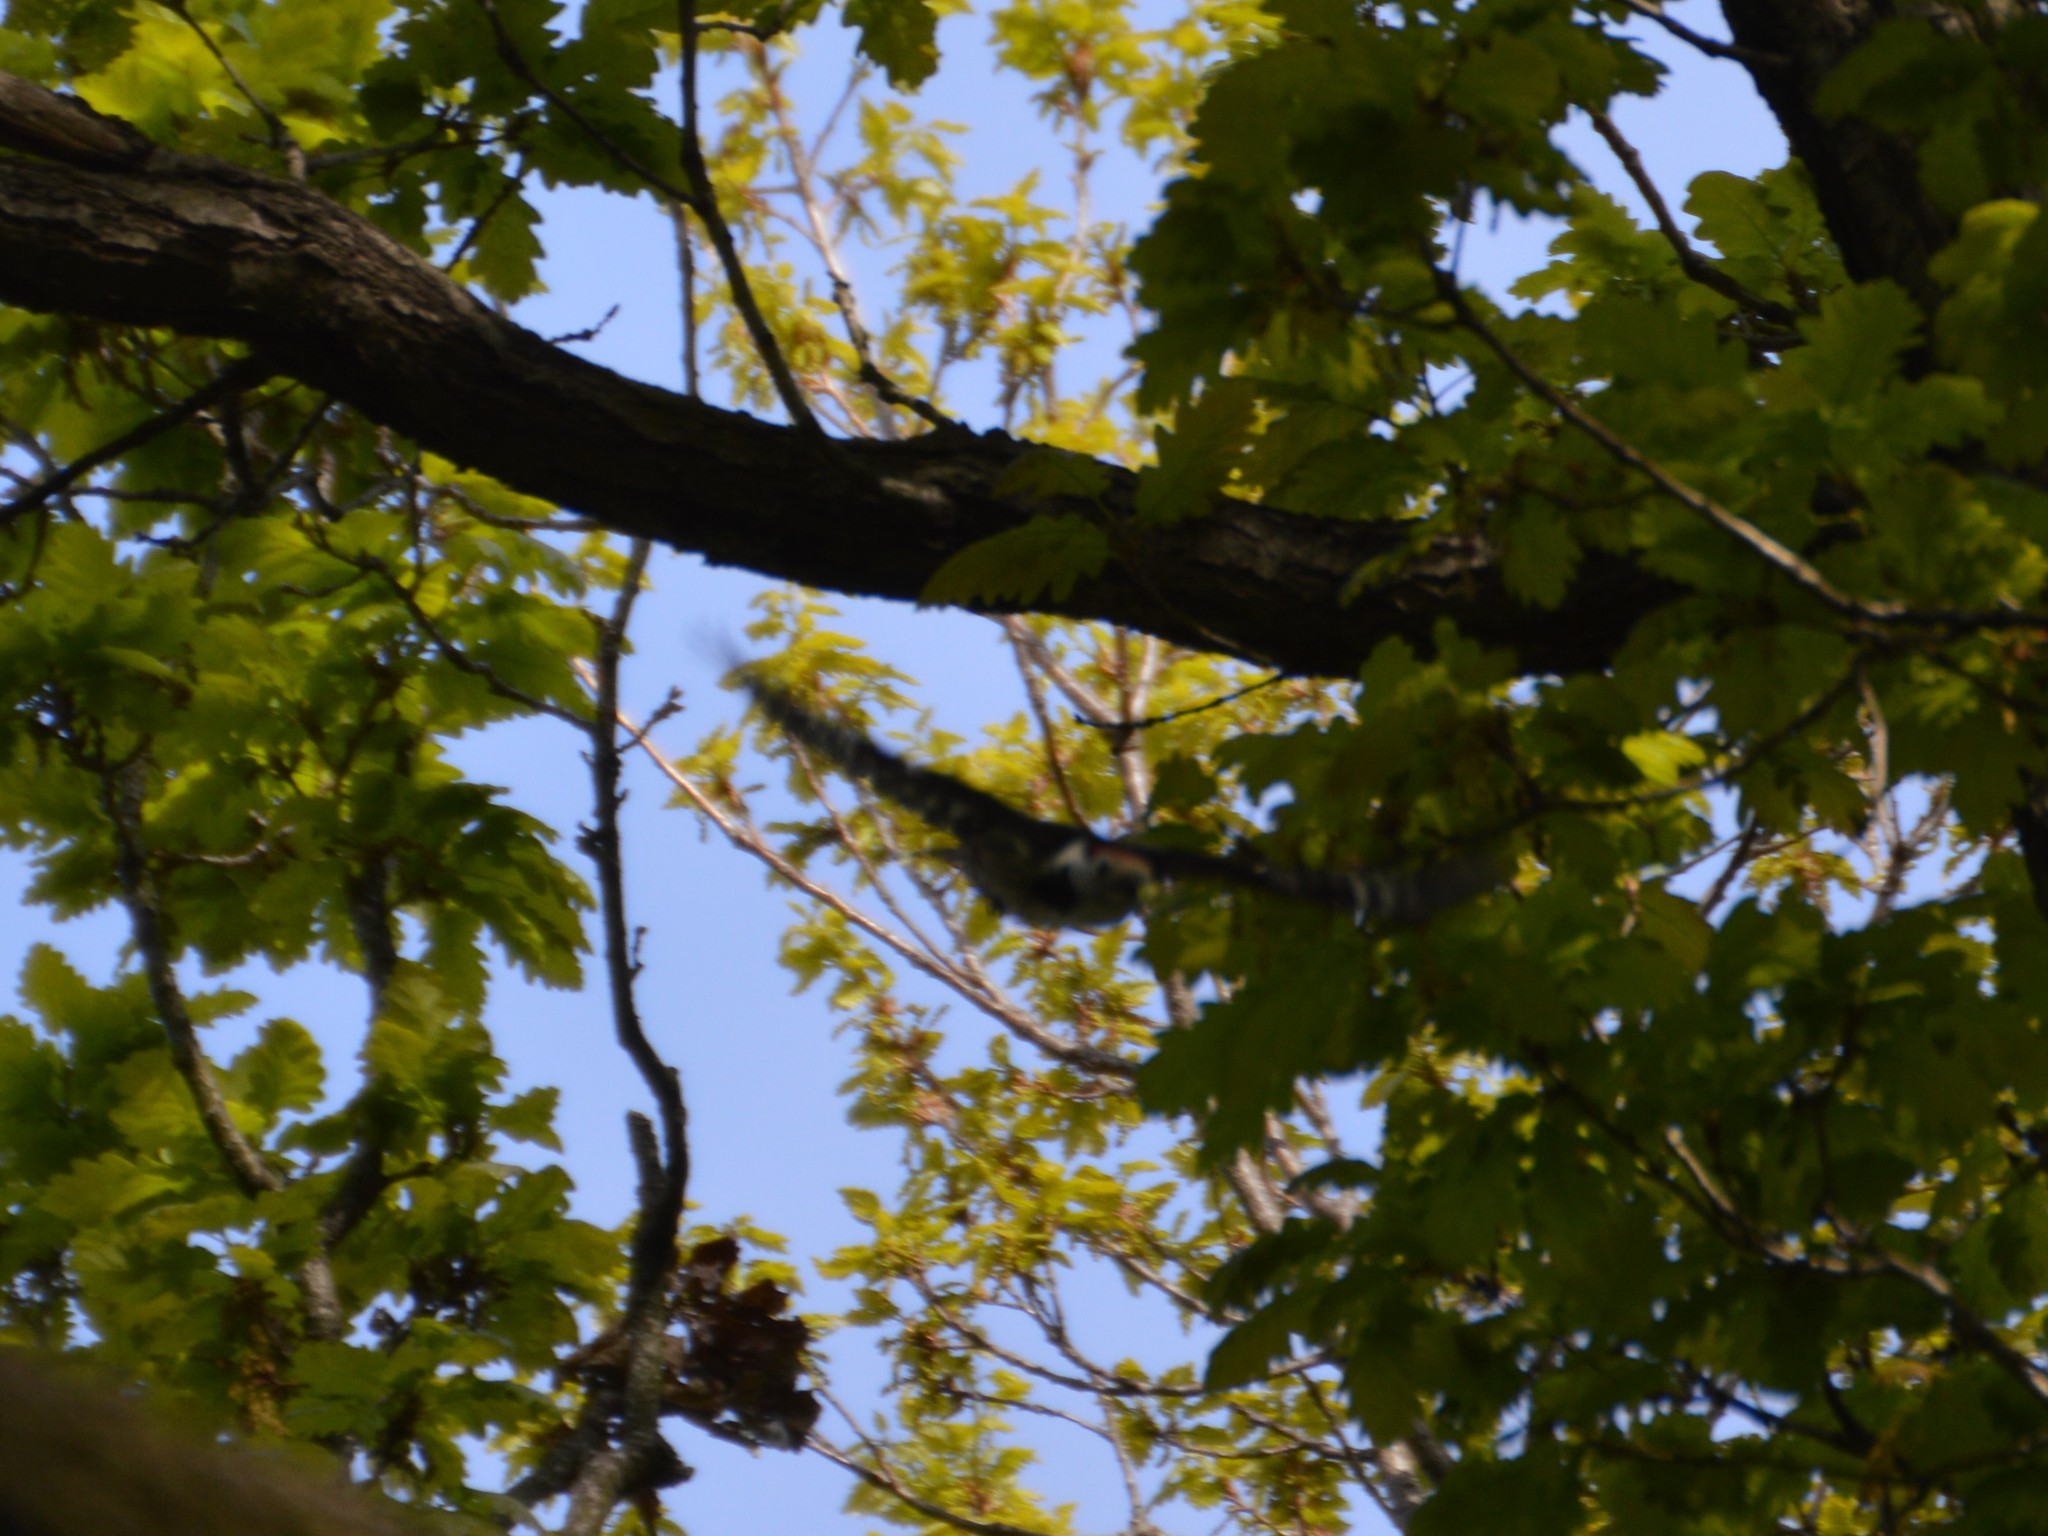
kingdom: Animalia
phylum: Chordata
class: Aves
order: Piciformes
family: Picidae
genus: Dendrocoptes
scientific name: Dendrocoptes medius
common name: Middle spotted woodpecker
